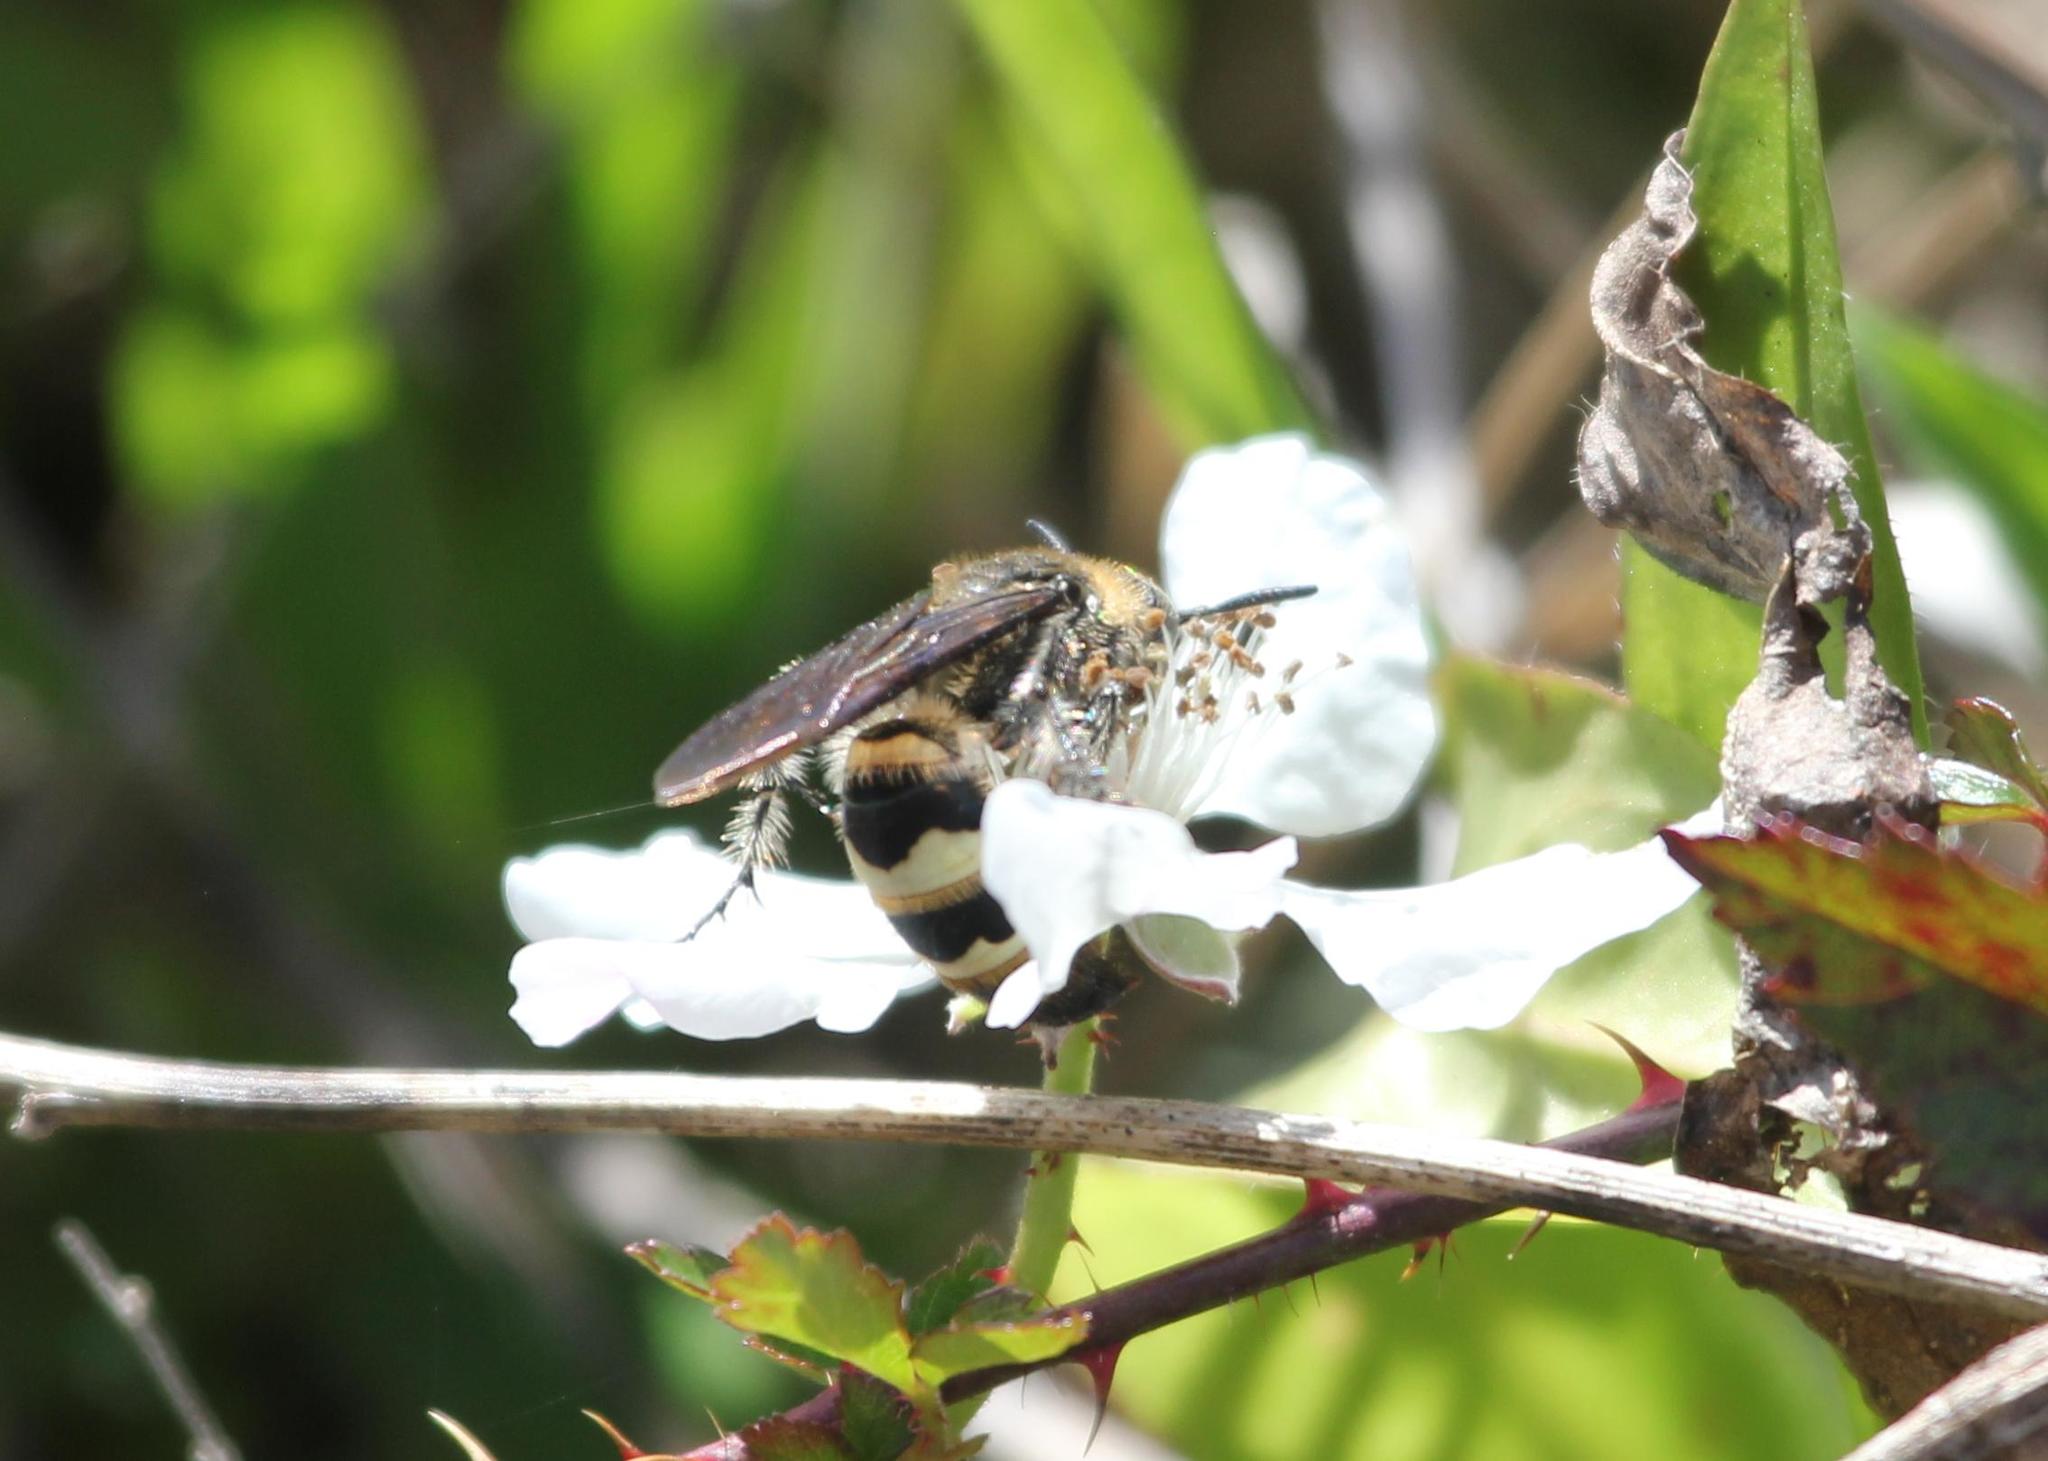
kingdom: Animalia
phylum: Arthropoda
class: Insecta
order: Hymenoptera
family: Scoliidae
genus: Dielis
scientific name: Dielis
